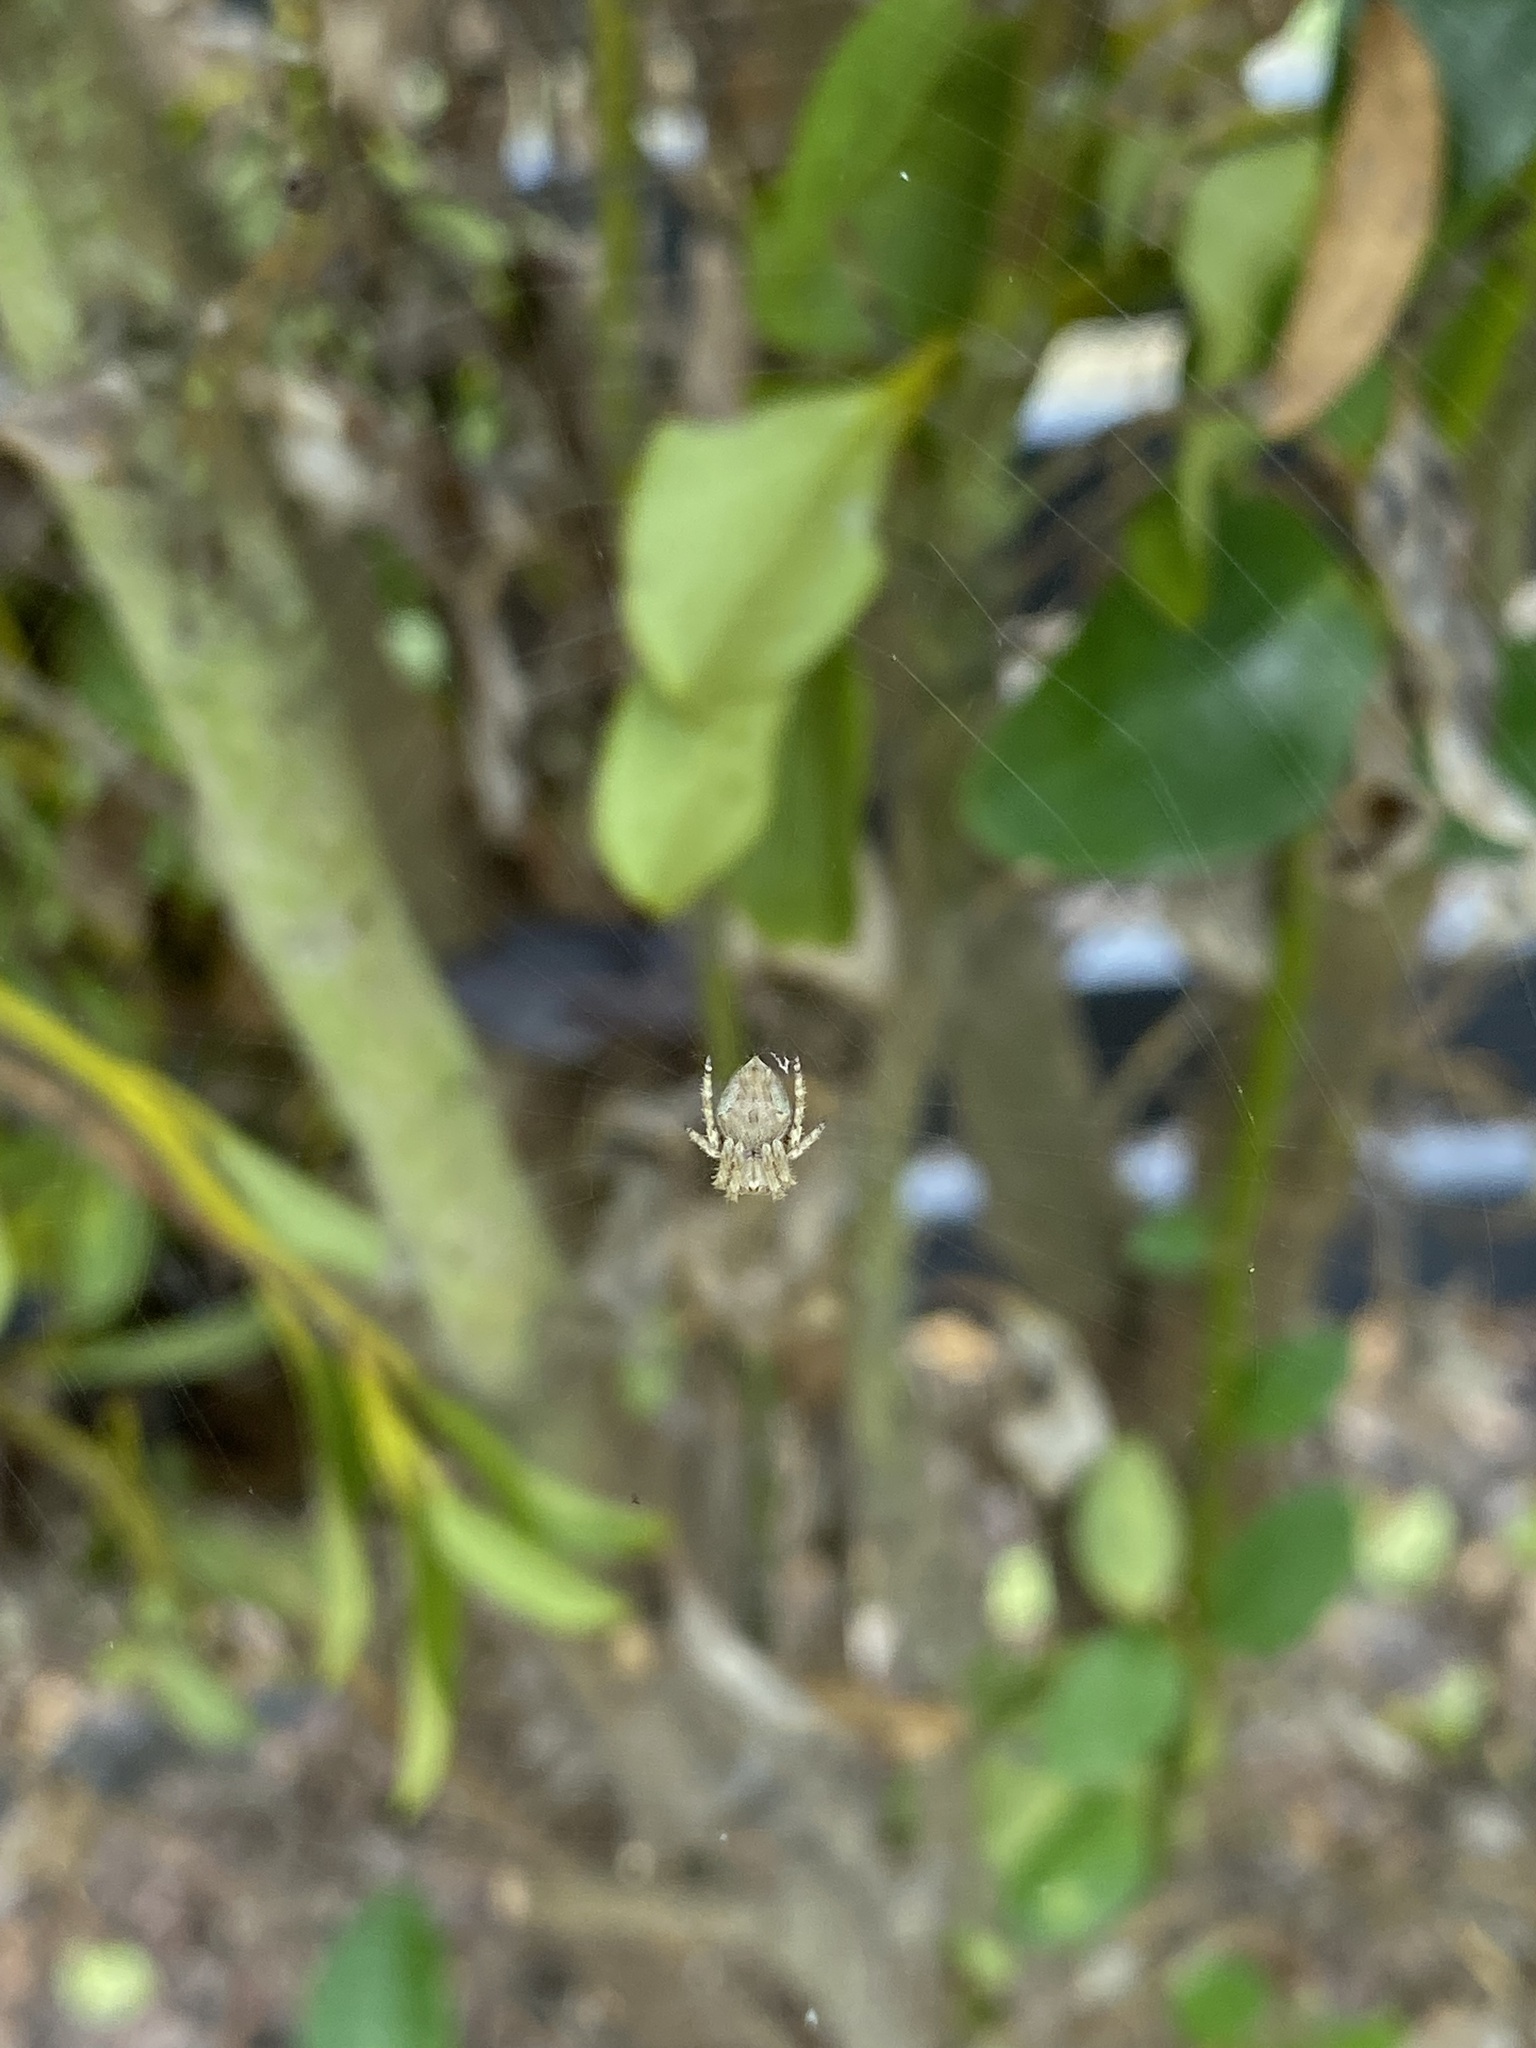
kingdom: Animalia
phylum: Arthropoda
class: Arachnida
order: Araneae
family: Araneidae
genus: Eriophora
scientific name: Eriophora pustulosa
